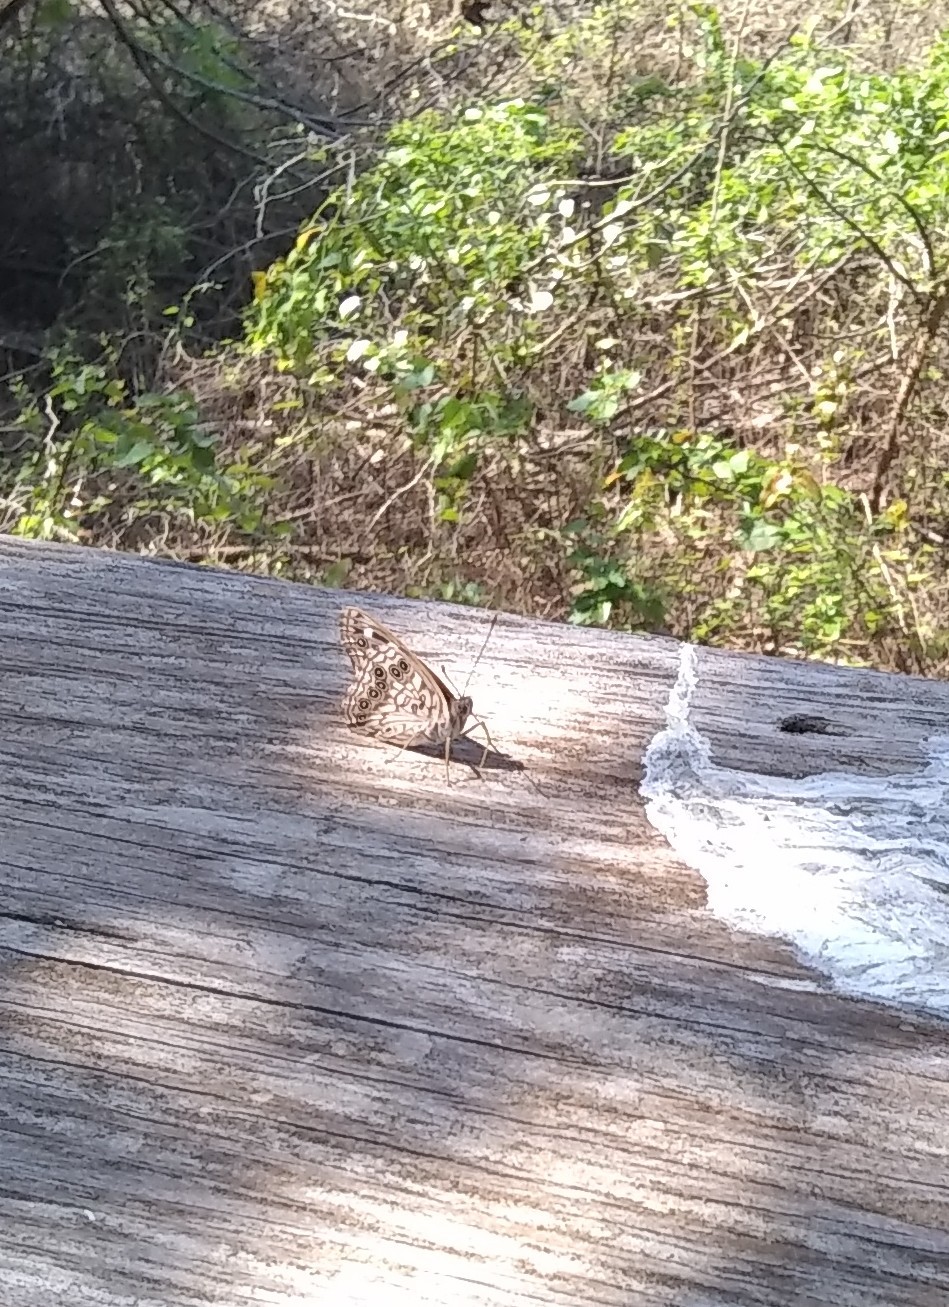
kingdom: Animalia
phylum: Arthropoda
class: Insecta
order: Lepidoptera
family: Nymphalidae
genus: Asterocampa
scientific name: Asterocampa celtis
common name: Hackberry emperor
